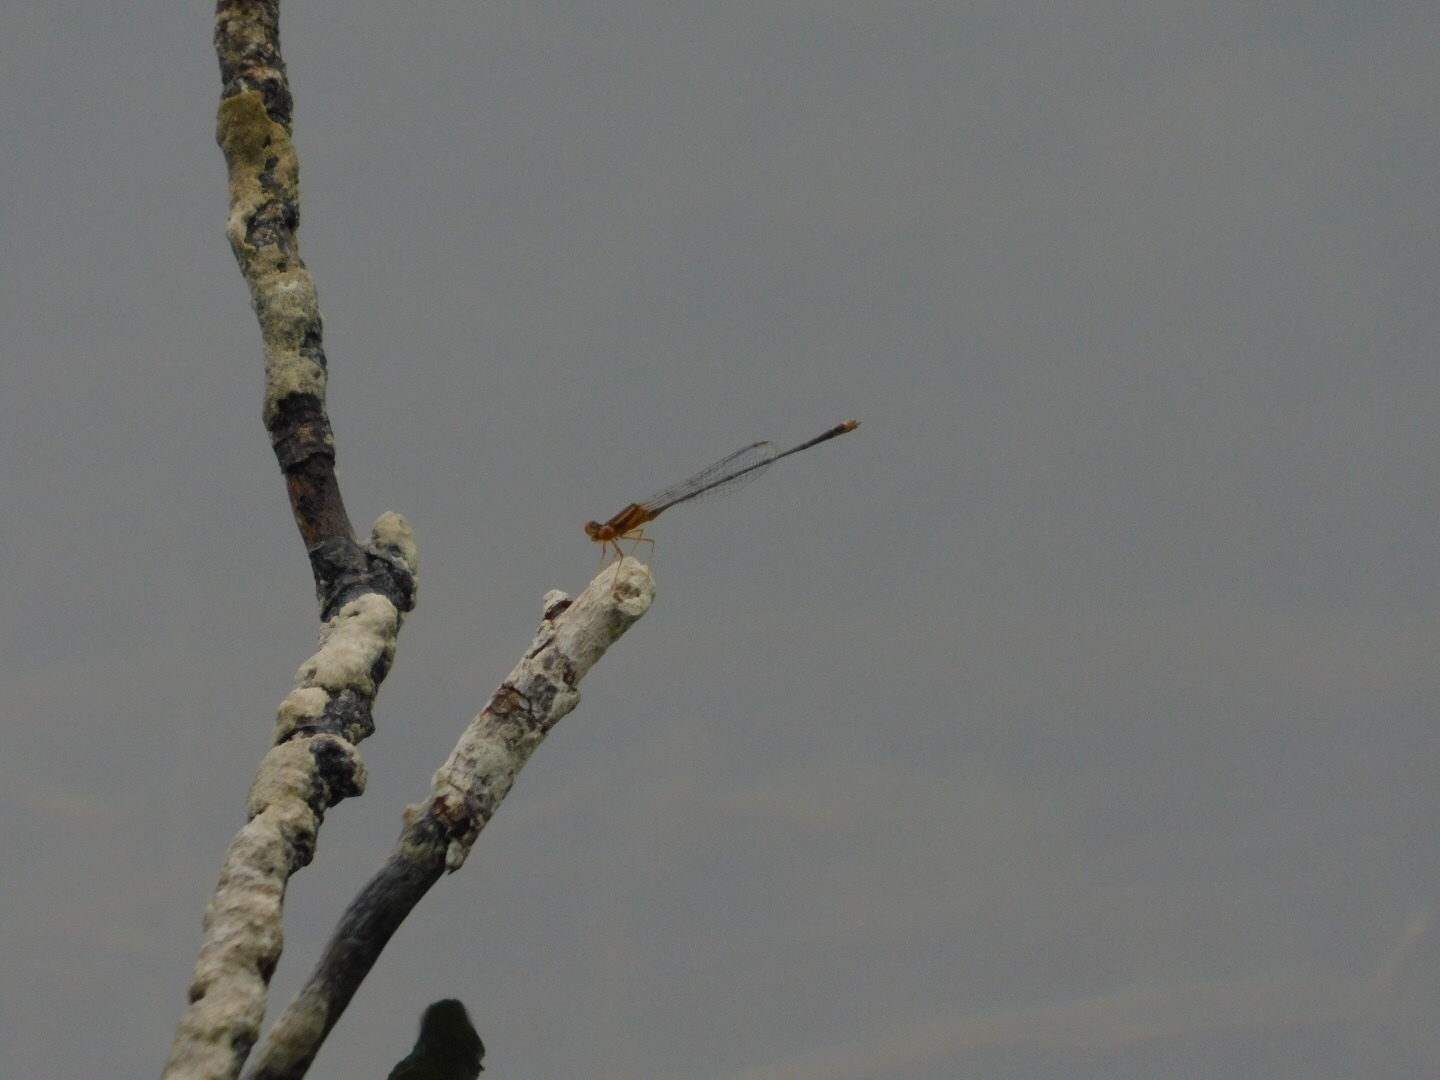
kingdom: Animalia
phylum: Arthropoda
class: Insecta
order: Odonata
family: Coenagrionidae
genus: Enallagma
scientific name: Enallagma pollutum
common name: Florida bluet
